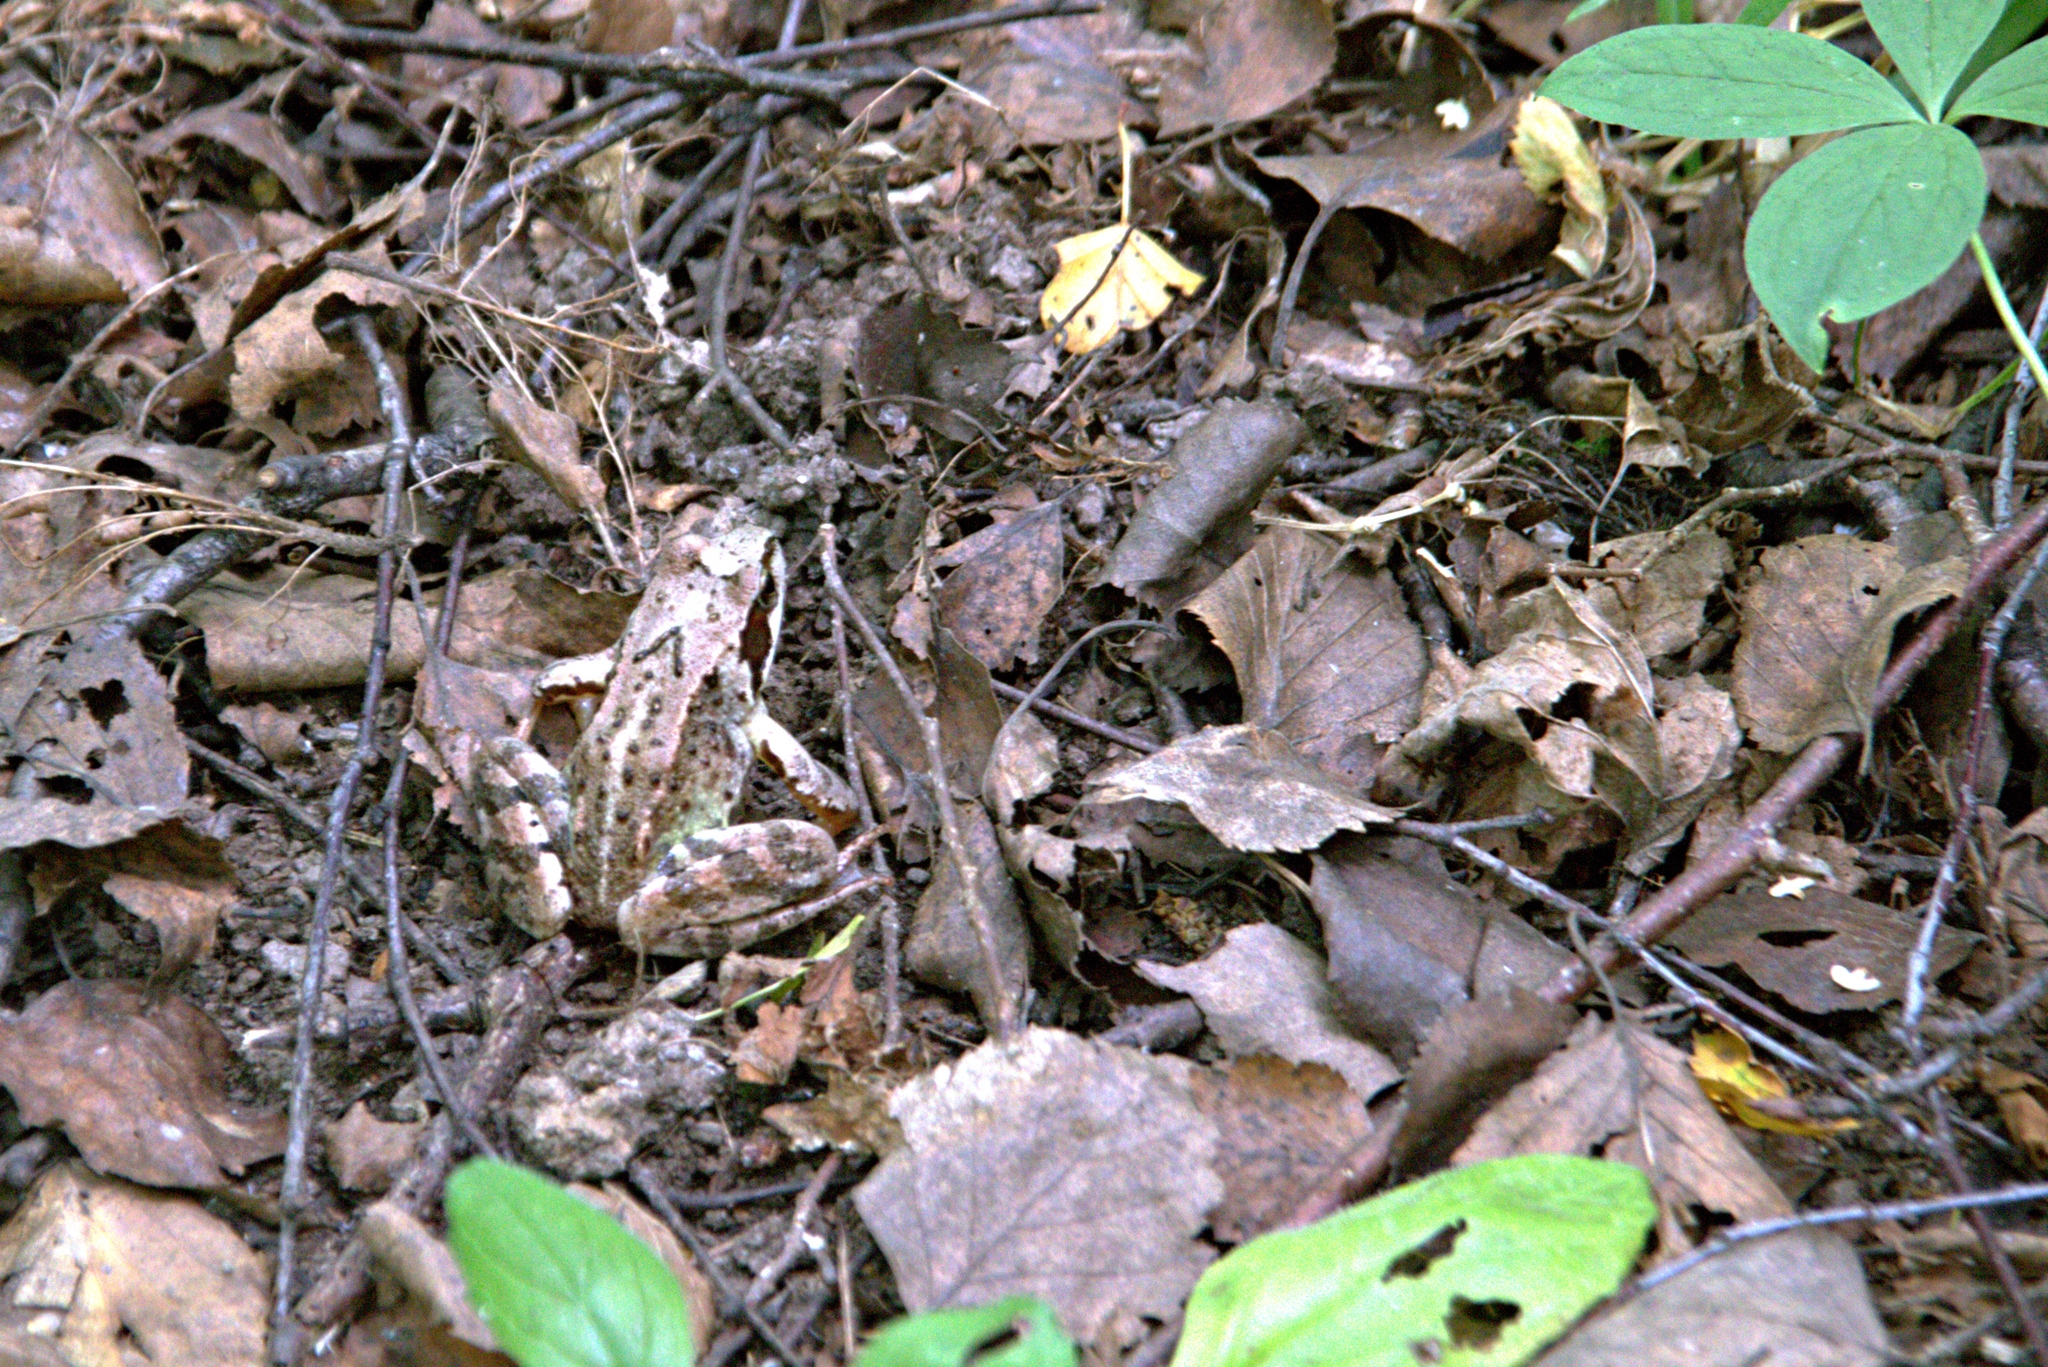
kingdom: Animalia
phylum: Chordata
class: Amphibia
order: Anura
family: Ranidae
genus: Rana
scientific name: Rana temporaria
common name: Common frog
